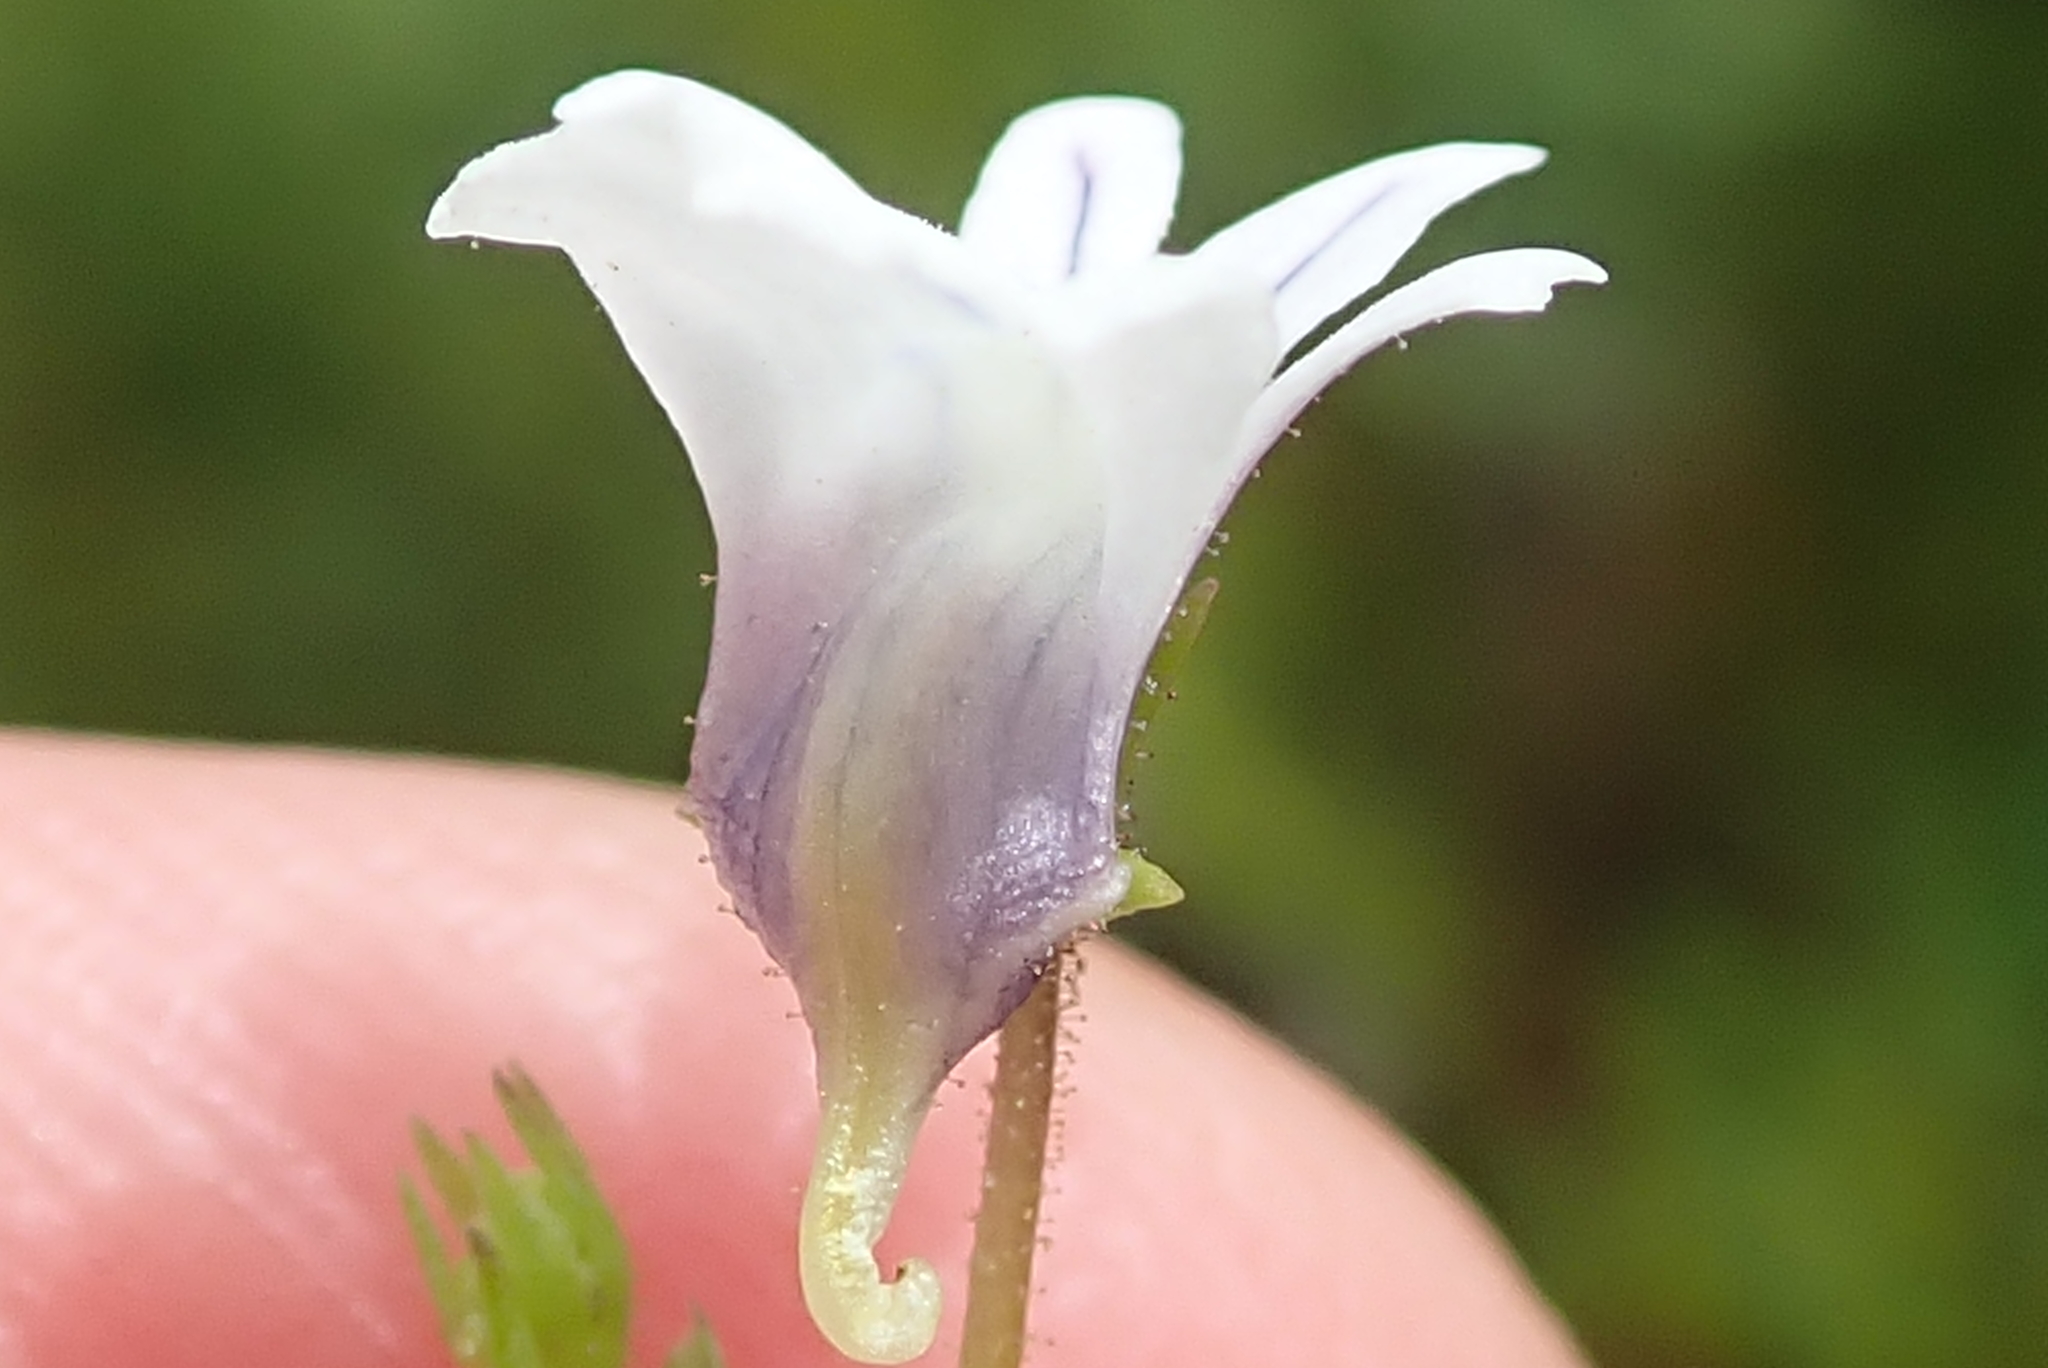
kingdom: Plantae
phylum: Tracheophyta
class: Magnoliopsida
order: Lamiales
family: Scrophulariaceae
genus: Nemesia
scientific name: Nemesia diffusa
